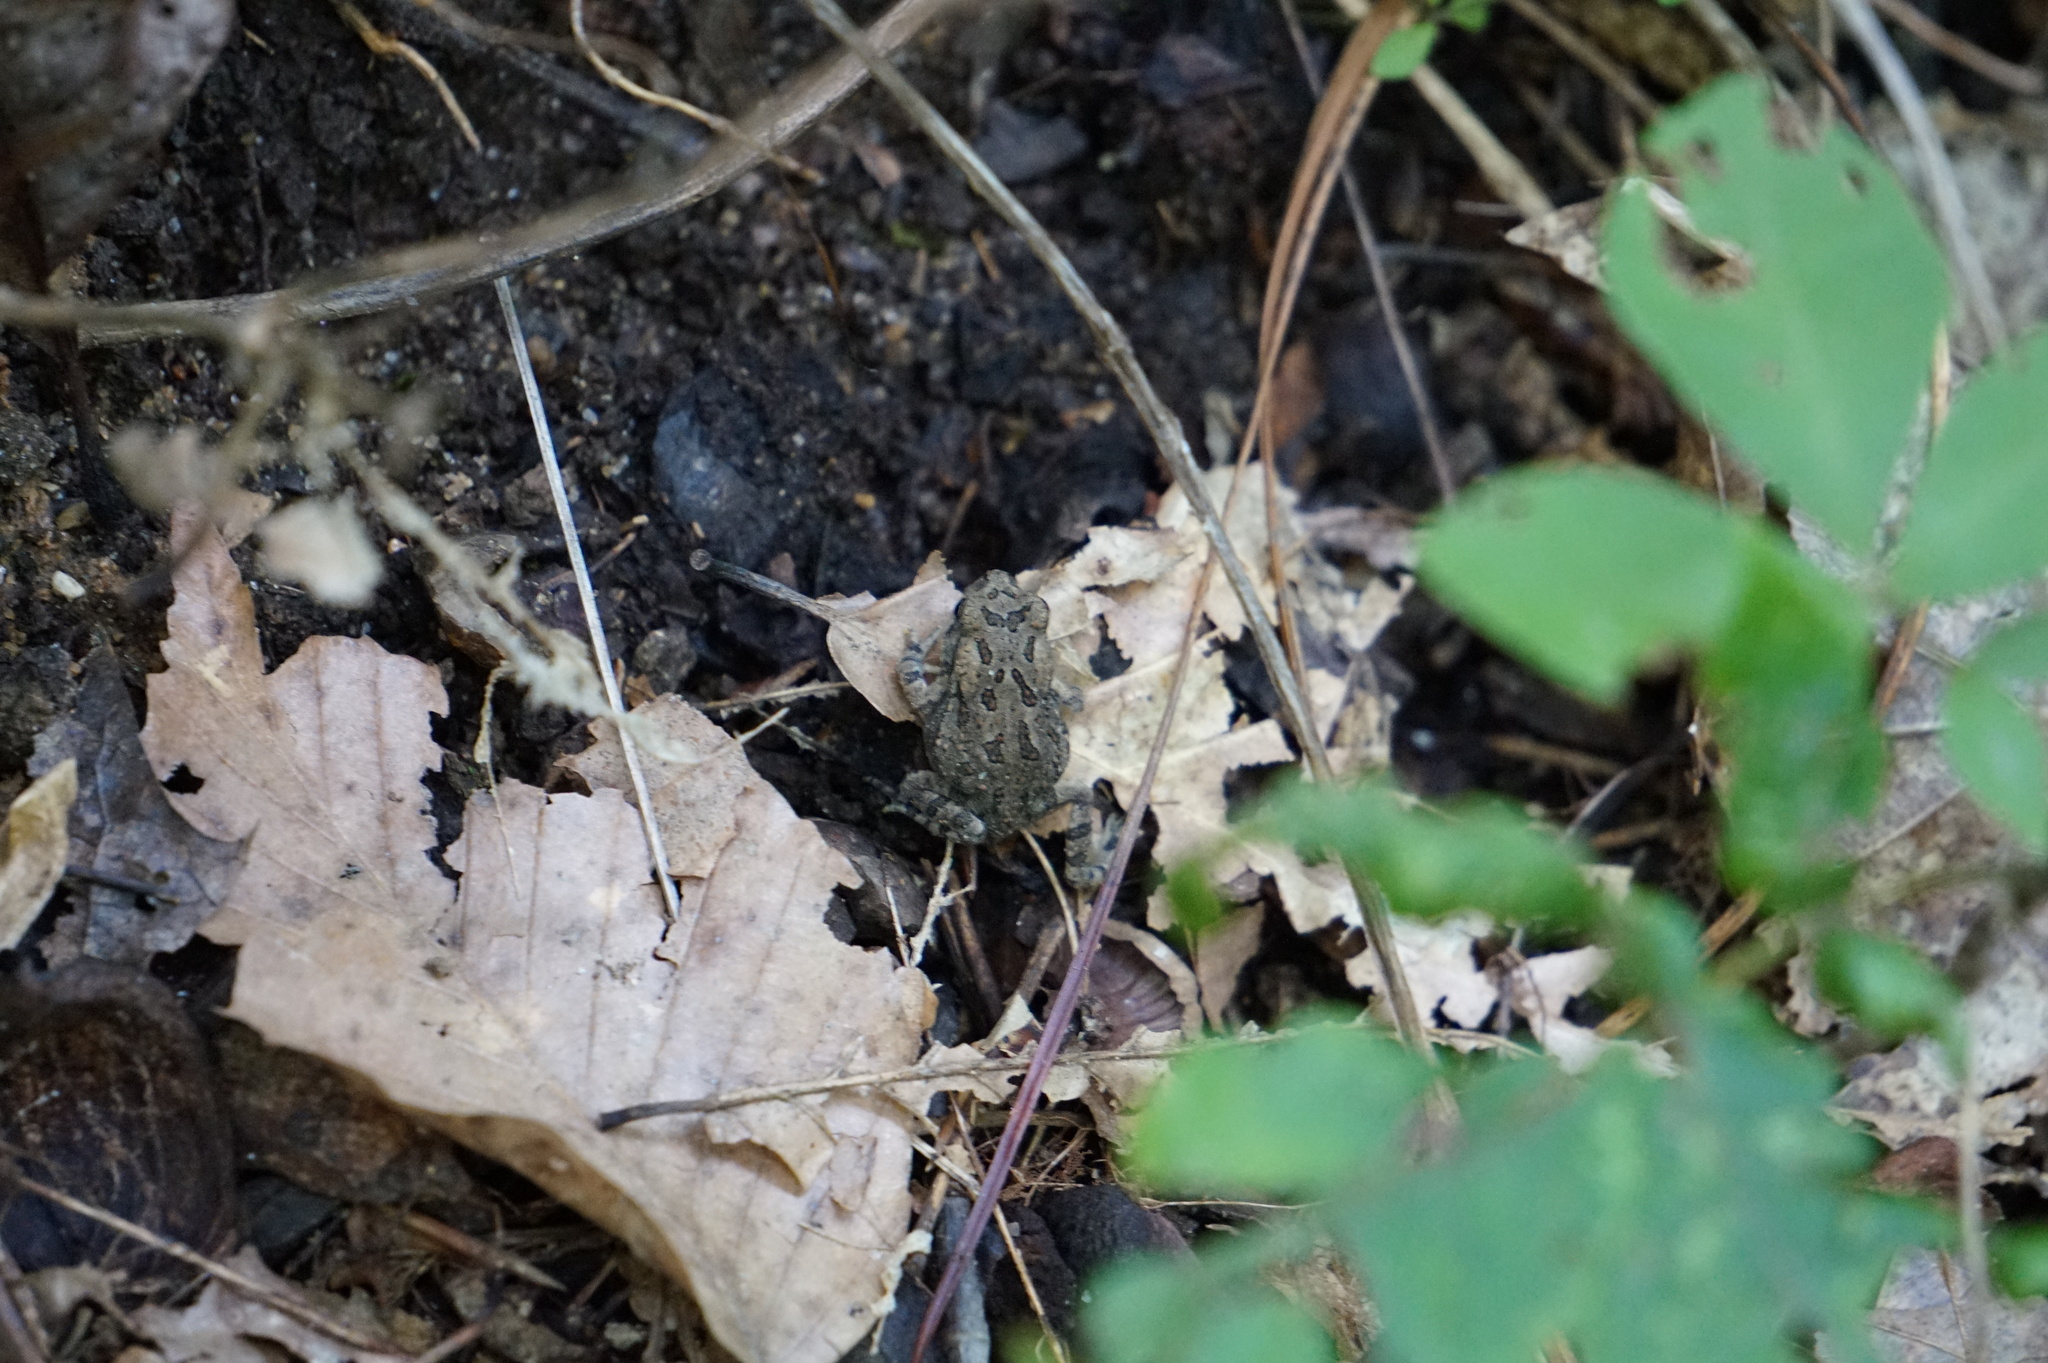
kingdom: Animalia
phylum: Chordata
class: Amphibia
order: Anura
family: Bufonidae
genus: Anaxyrus
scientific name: Anaxyrus fowleri
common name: Fowler's toad
